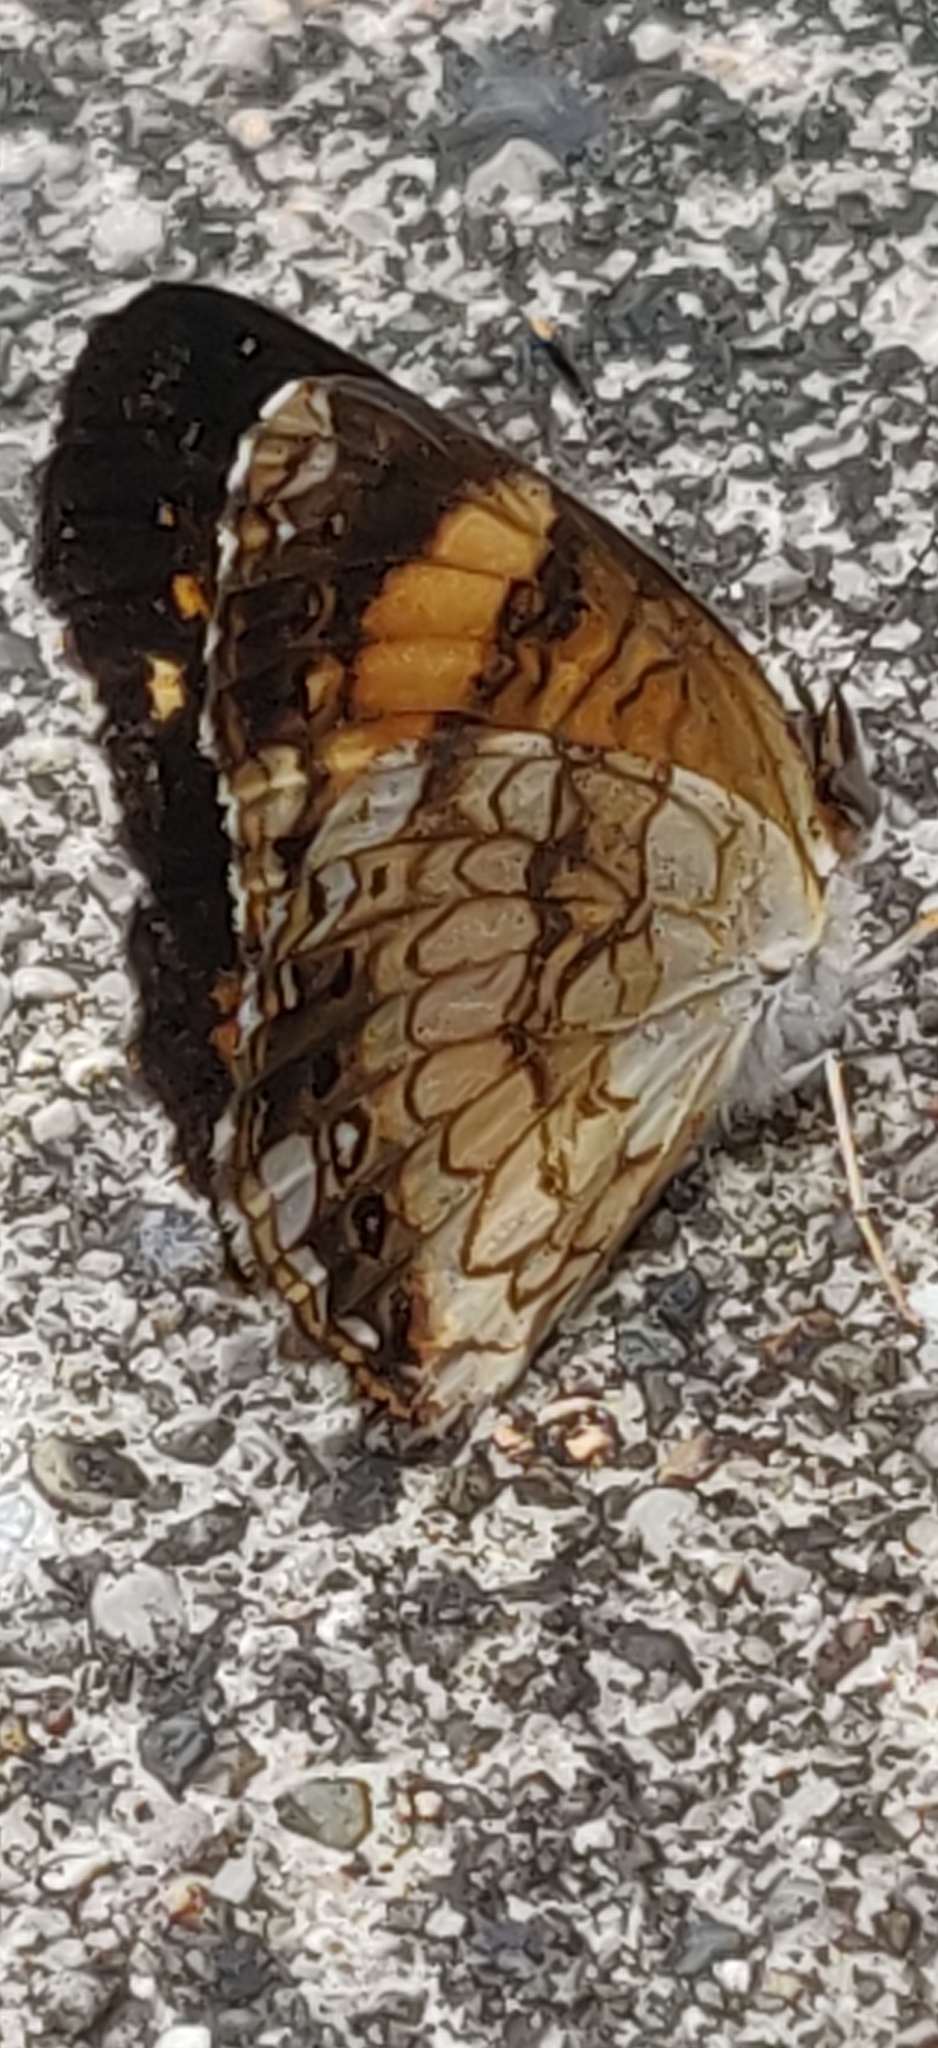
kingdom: Animalia
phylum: Arthropoda
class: Insecta
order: Lepidoptera
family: Nymphalidae
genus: Chlosyne
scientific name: Chlosyne nycteis
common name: Silvery checkerspot
